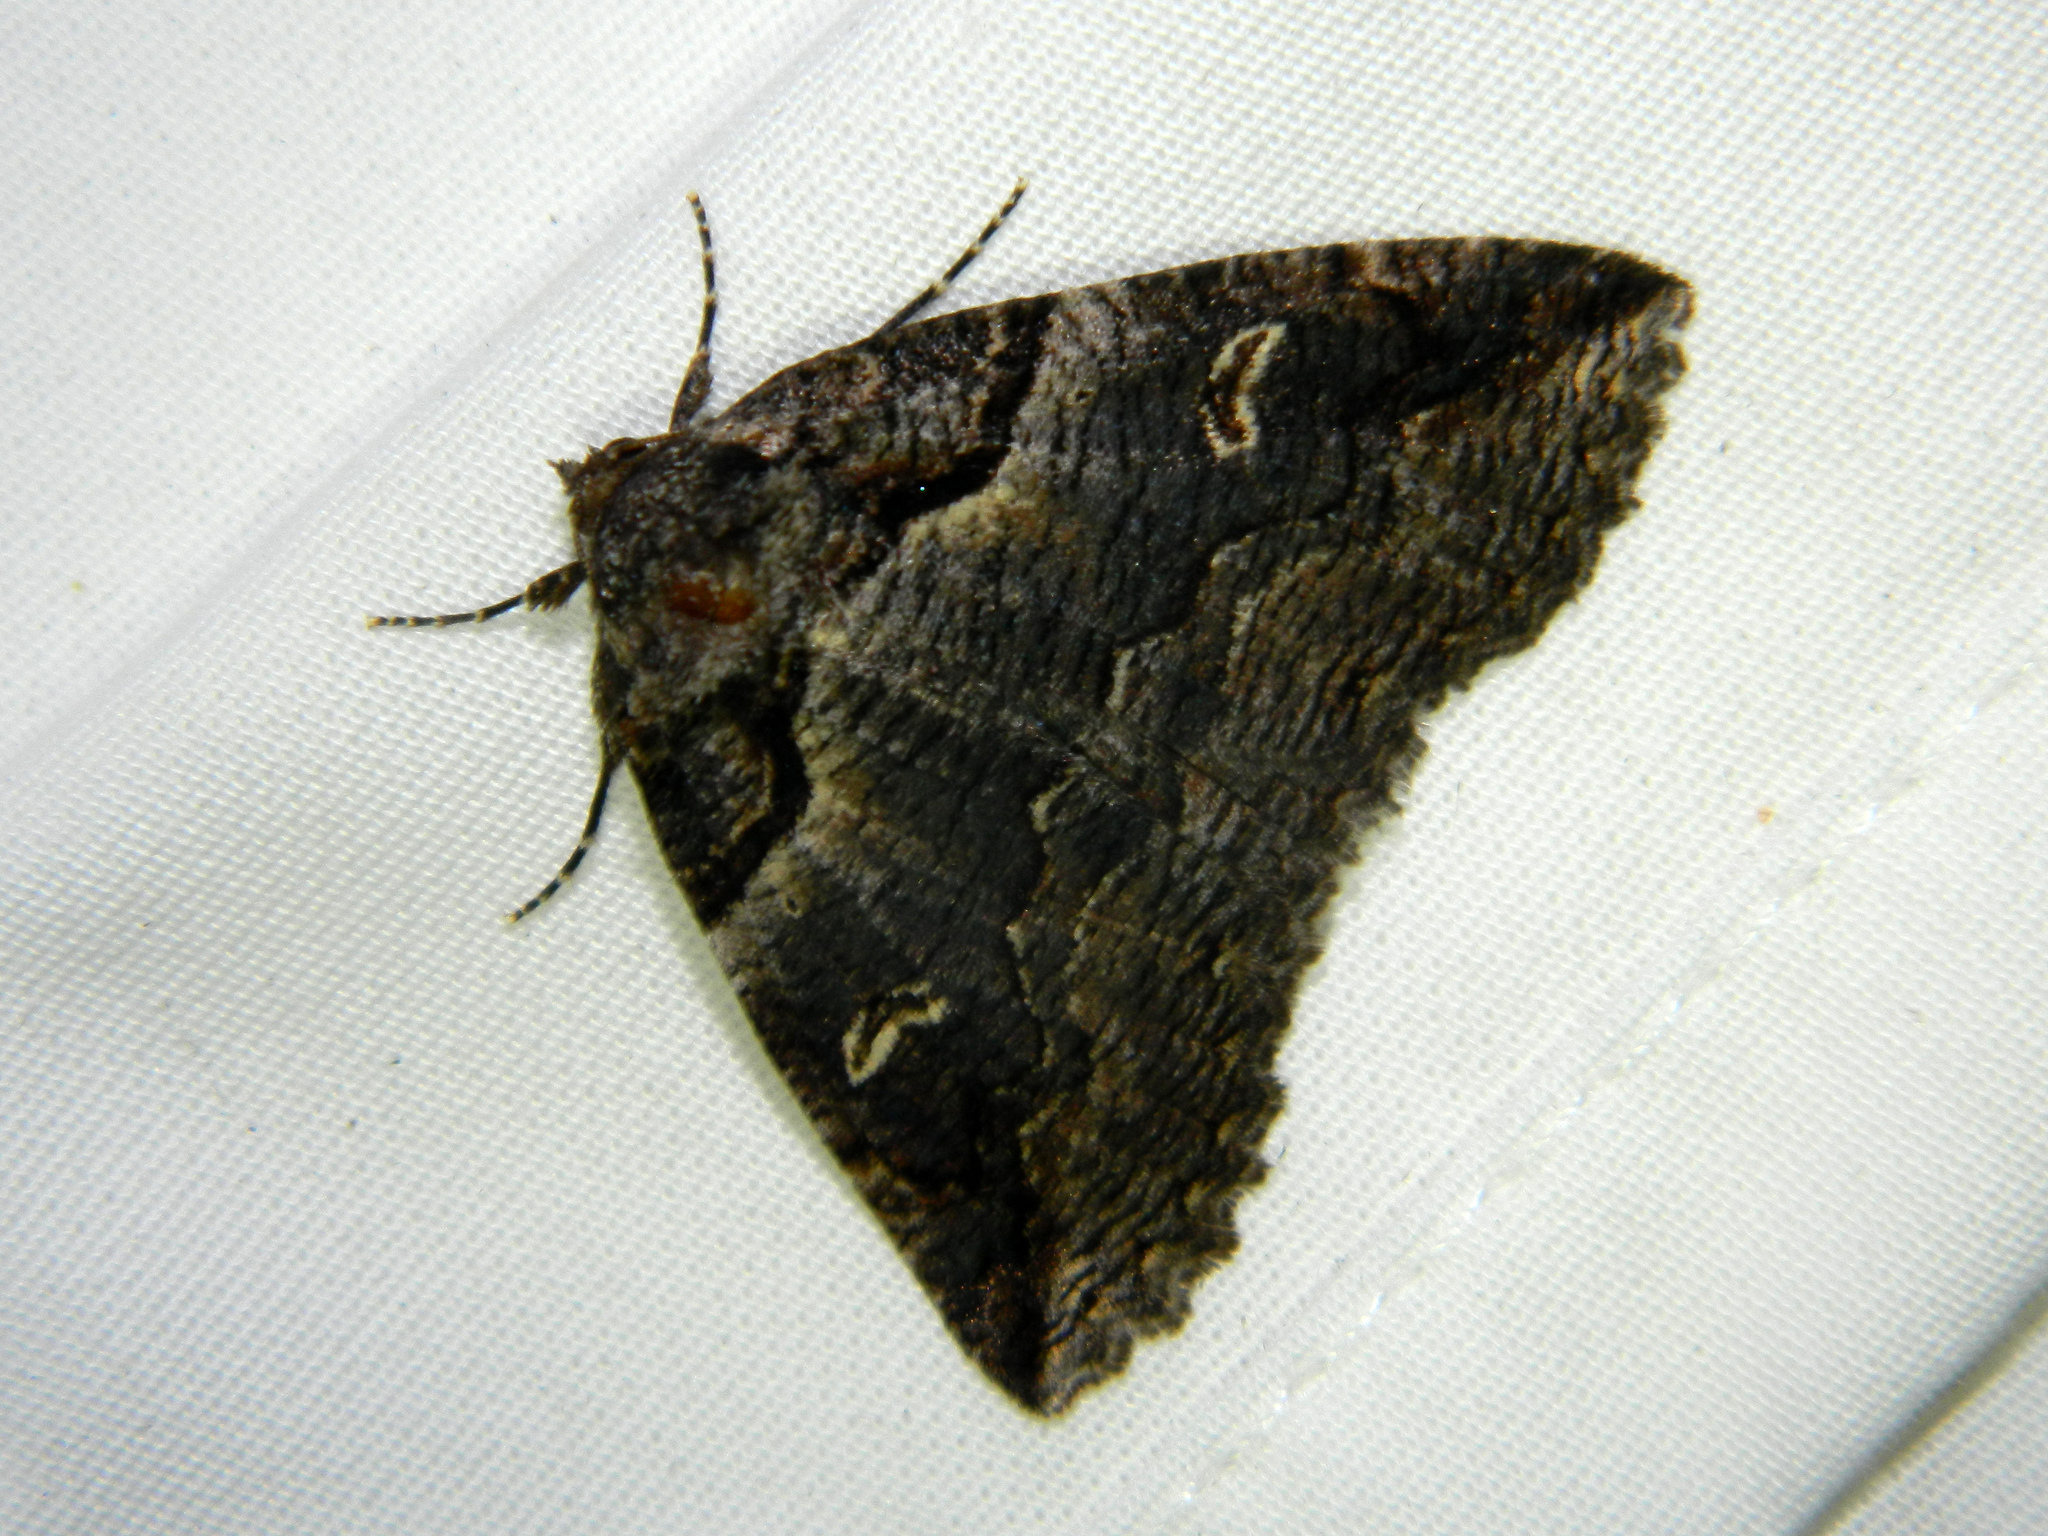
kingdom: Animalia
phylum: Arthropoda
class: Insecta
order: Lepidoptera
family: Erebidae
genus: Zale
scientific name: Zale intenta
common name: Intent zale moth
